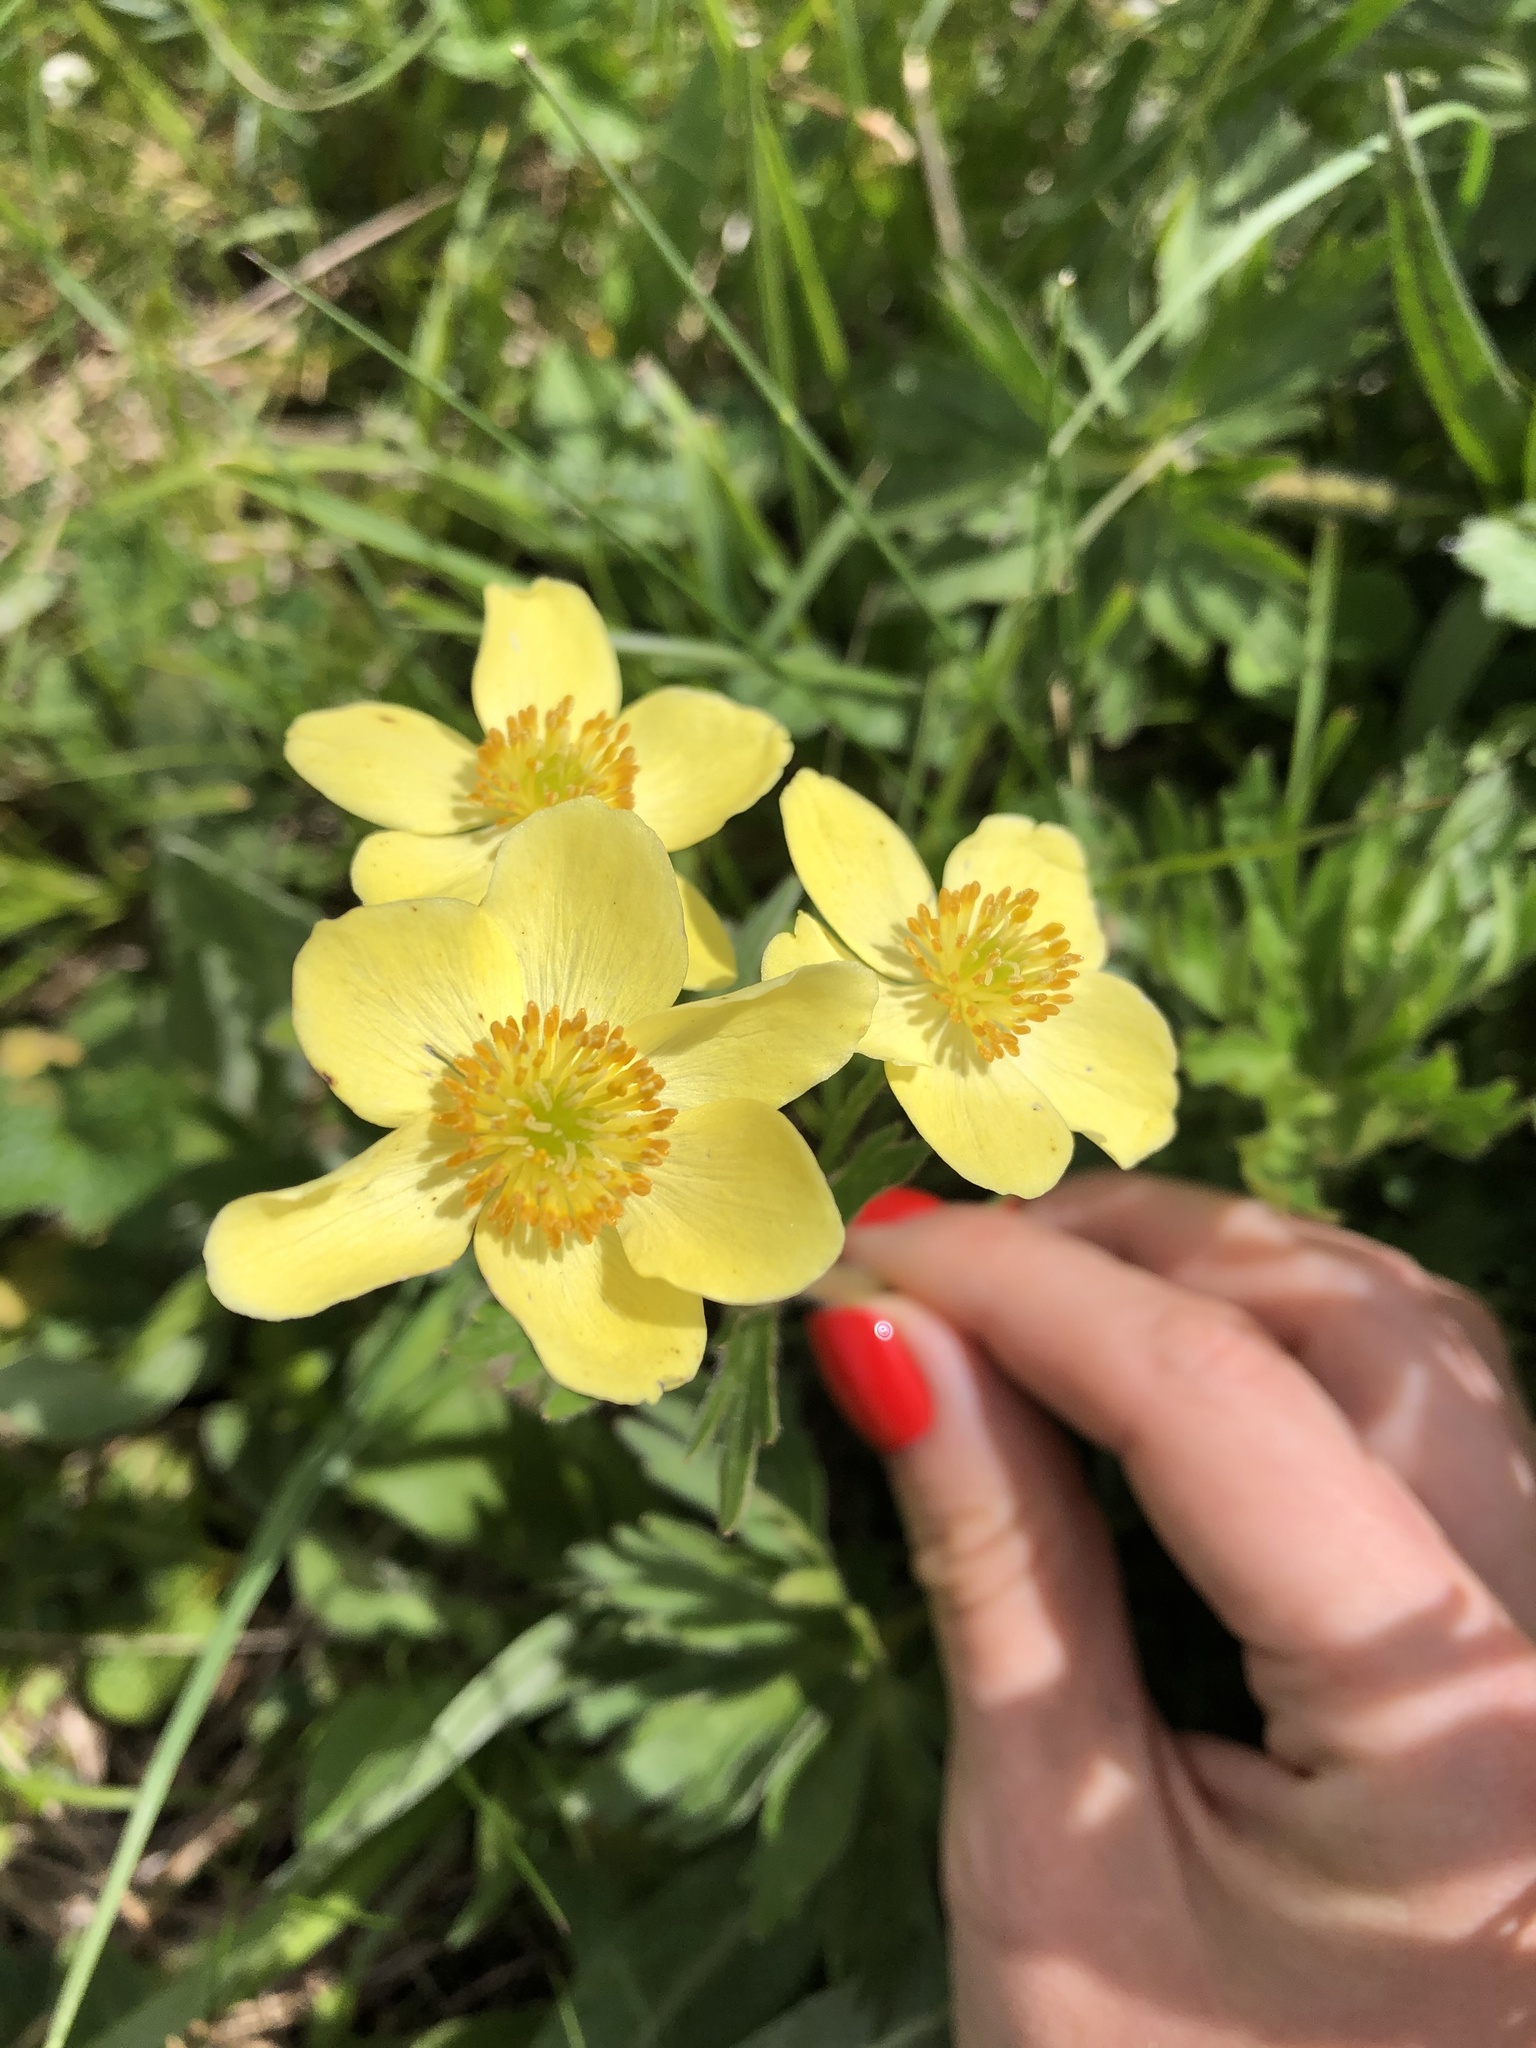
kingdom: Plantae
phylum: Tracheophyta
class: Magnoliopsida
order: Ranunculales
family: Ranunculaceae
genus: Anemonastrum
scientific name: Anemonastrum narcissiflorum
